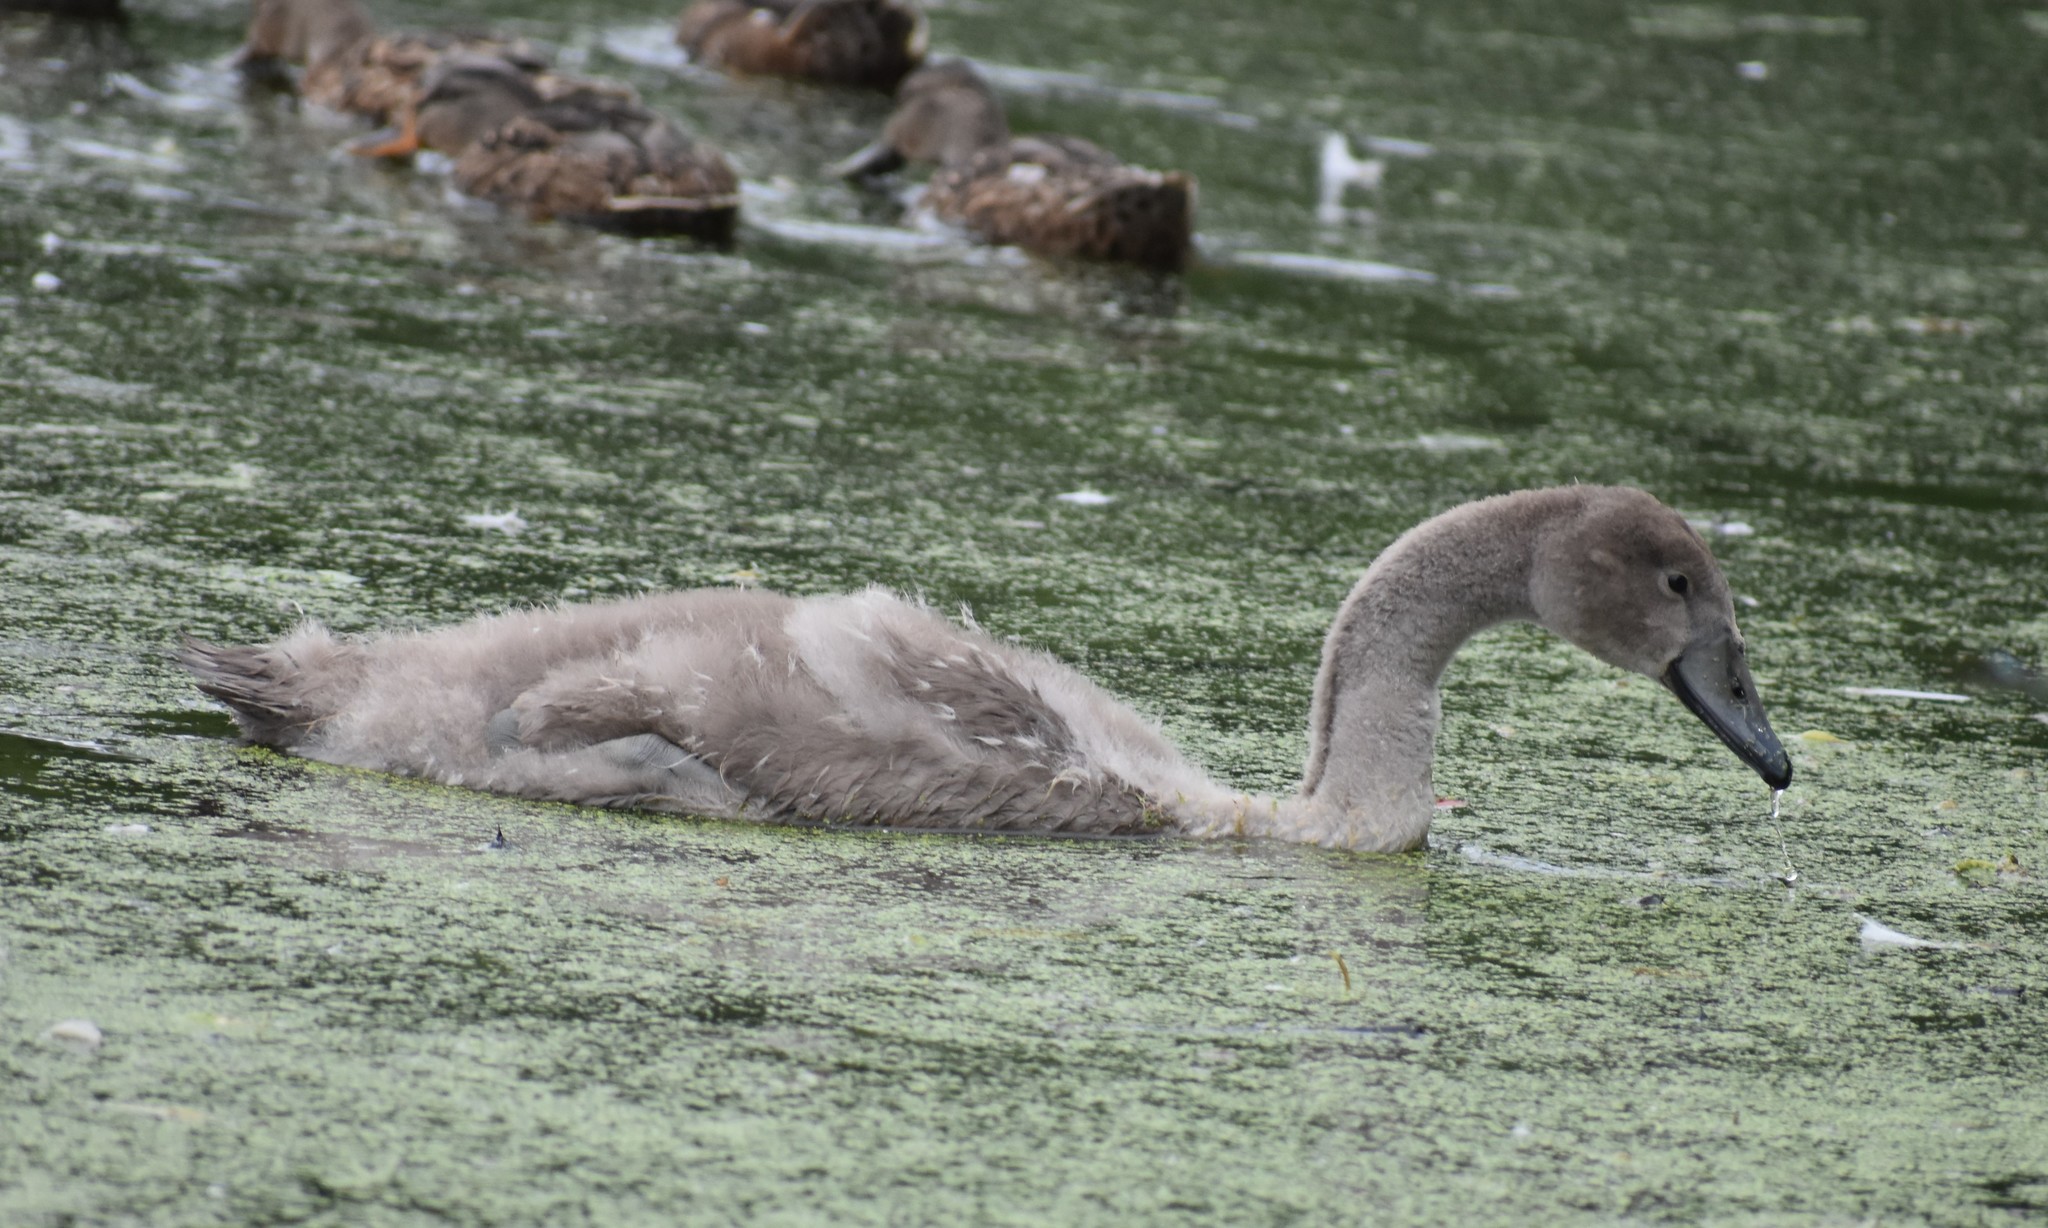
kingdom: Animalia
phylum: Chordata
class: Aves
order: Anseriformes
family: Anatidae
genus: Cygnus
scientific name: Cygnus olor
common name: Mute swan
